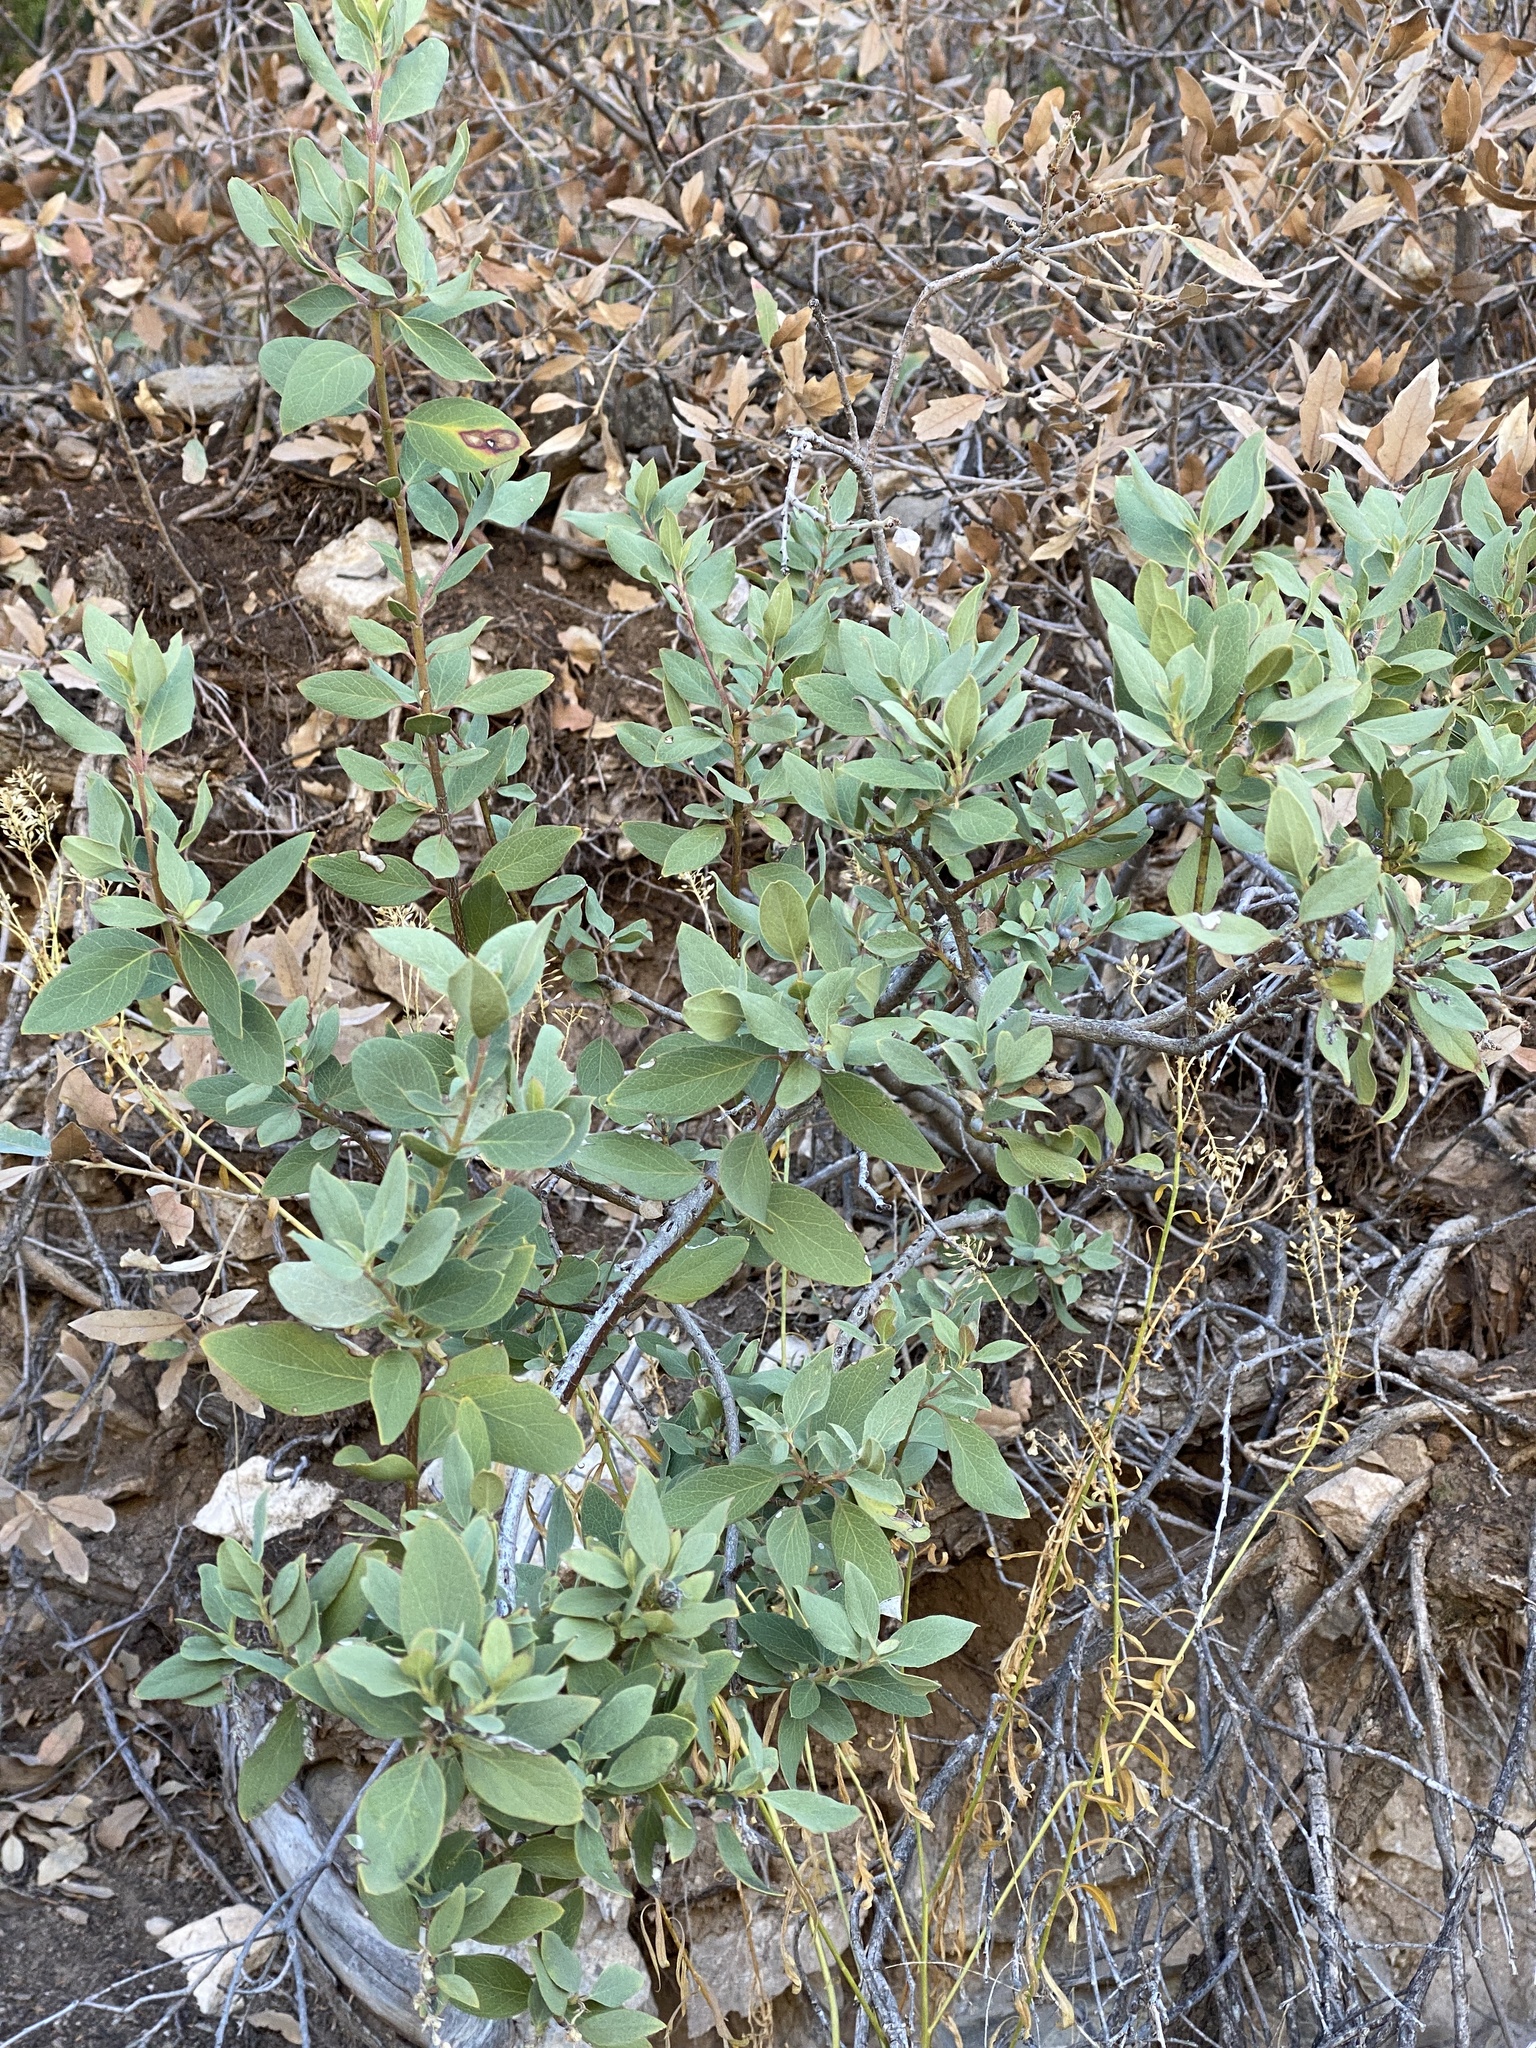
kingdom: Plantae
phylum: Tracheophyta
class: Magnoliopsida
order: Garryales
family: Garryaceae
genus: Garrya
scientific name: Garrya wrightii
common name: Wright's silktassel
